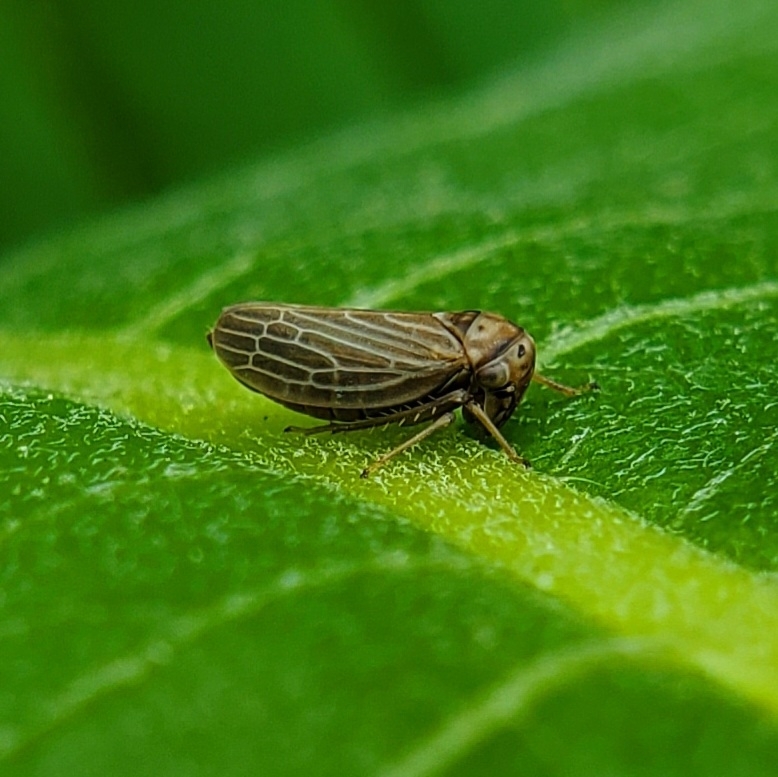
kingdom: Animalia
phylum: Arthropoda
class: Insecta
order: Hemiptera
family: Cicadellidae
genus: Agalliota
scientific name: Agalliota quadripunctata
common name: The four-spotted clover leafhopper
